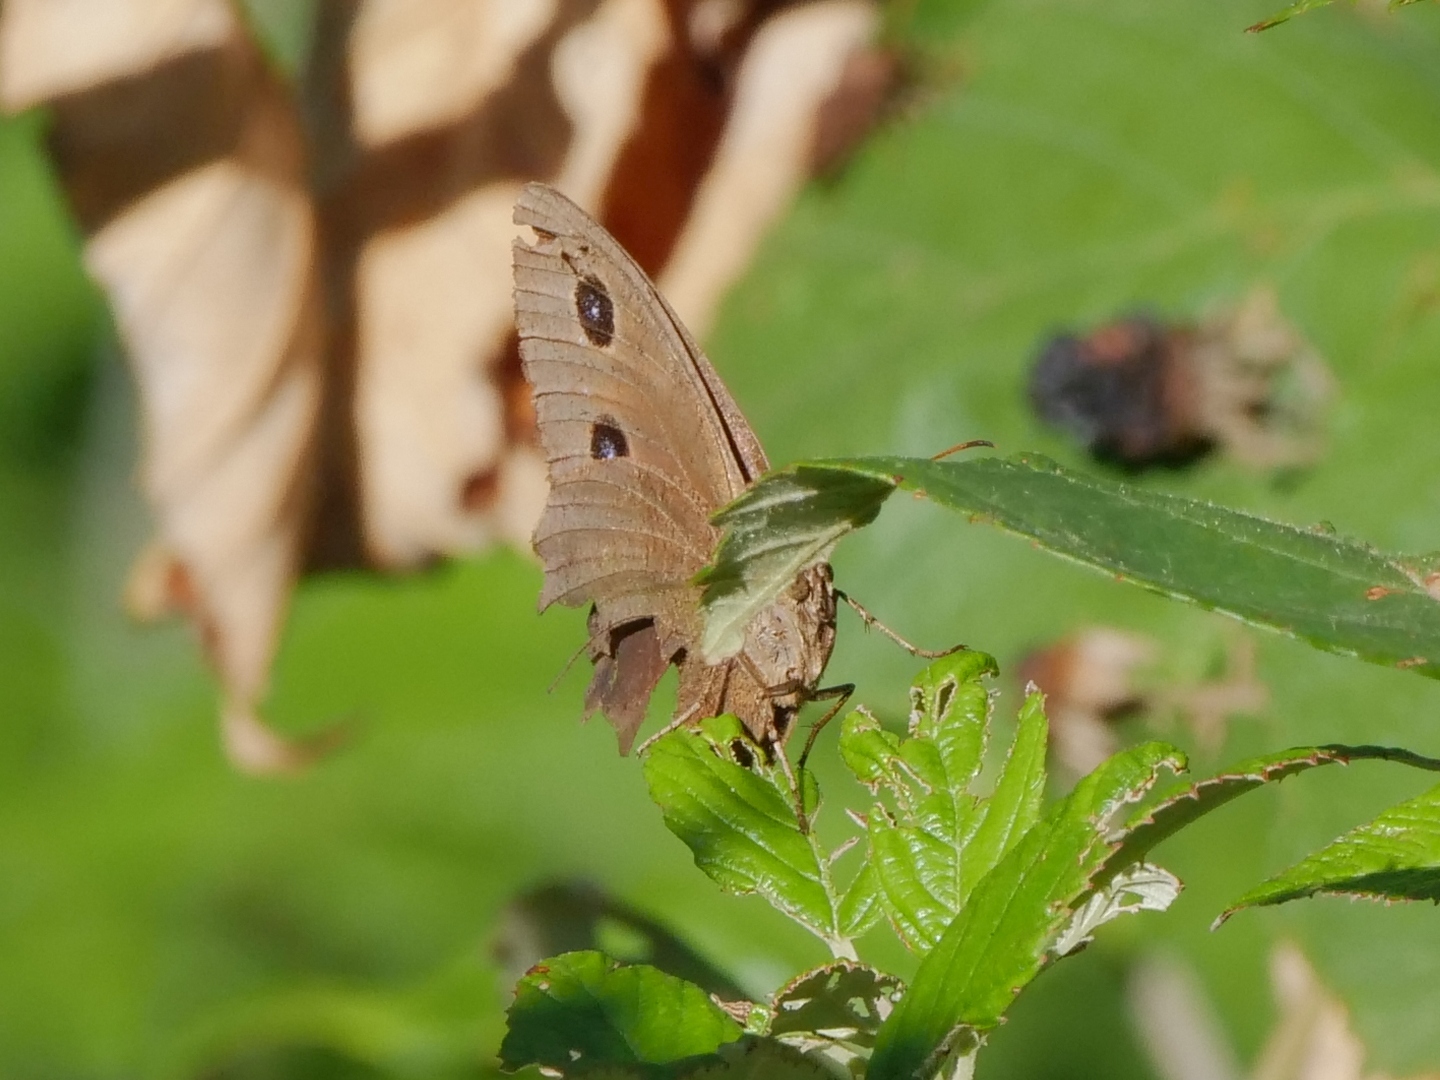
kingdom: Animalia
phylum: Arthropoda
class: Insecta
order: Lepidoptera
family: Nymphalidae
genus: Minois
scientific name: Minois dryas
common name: Dryad
